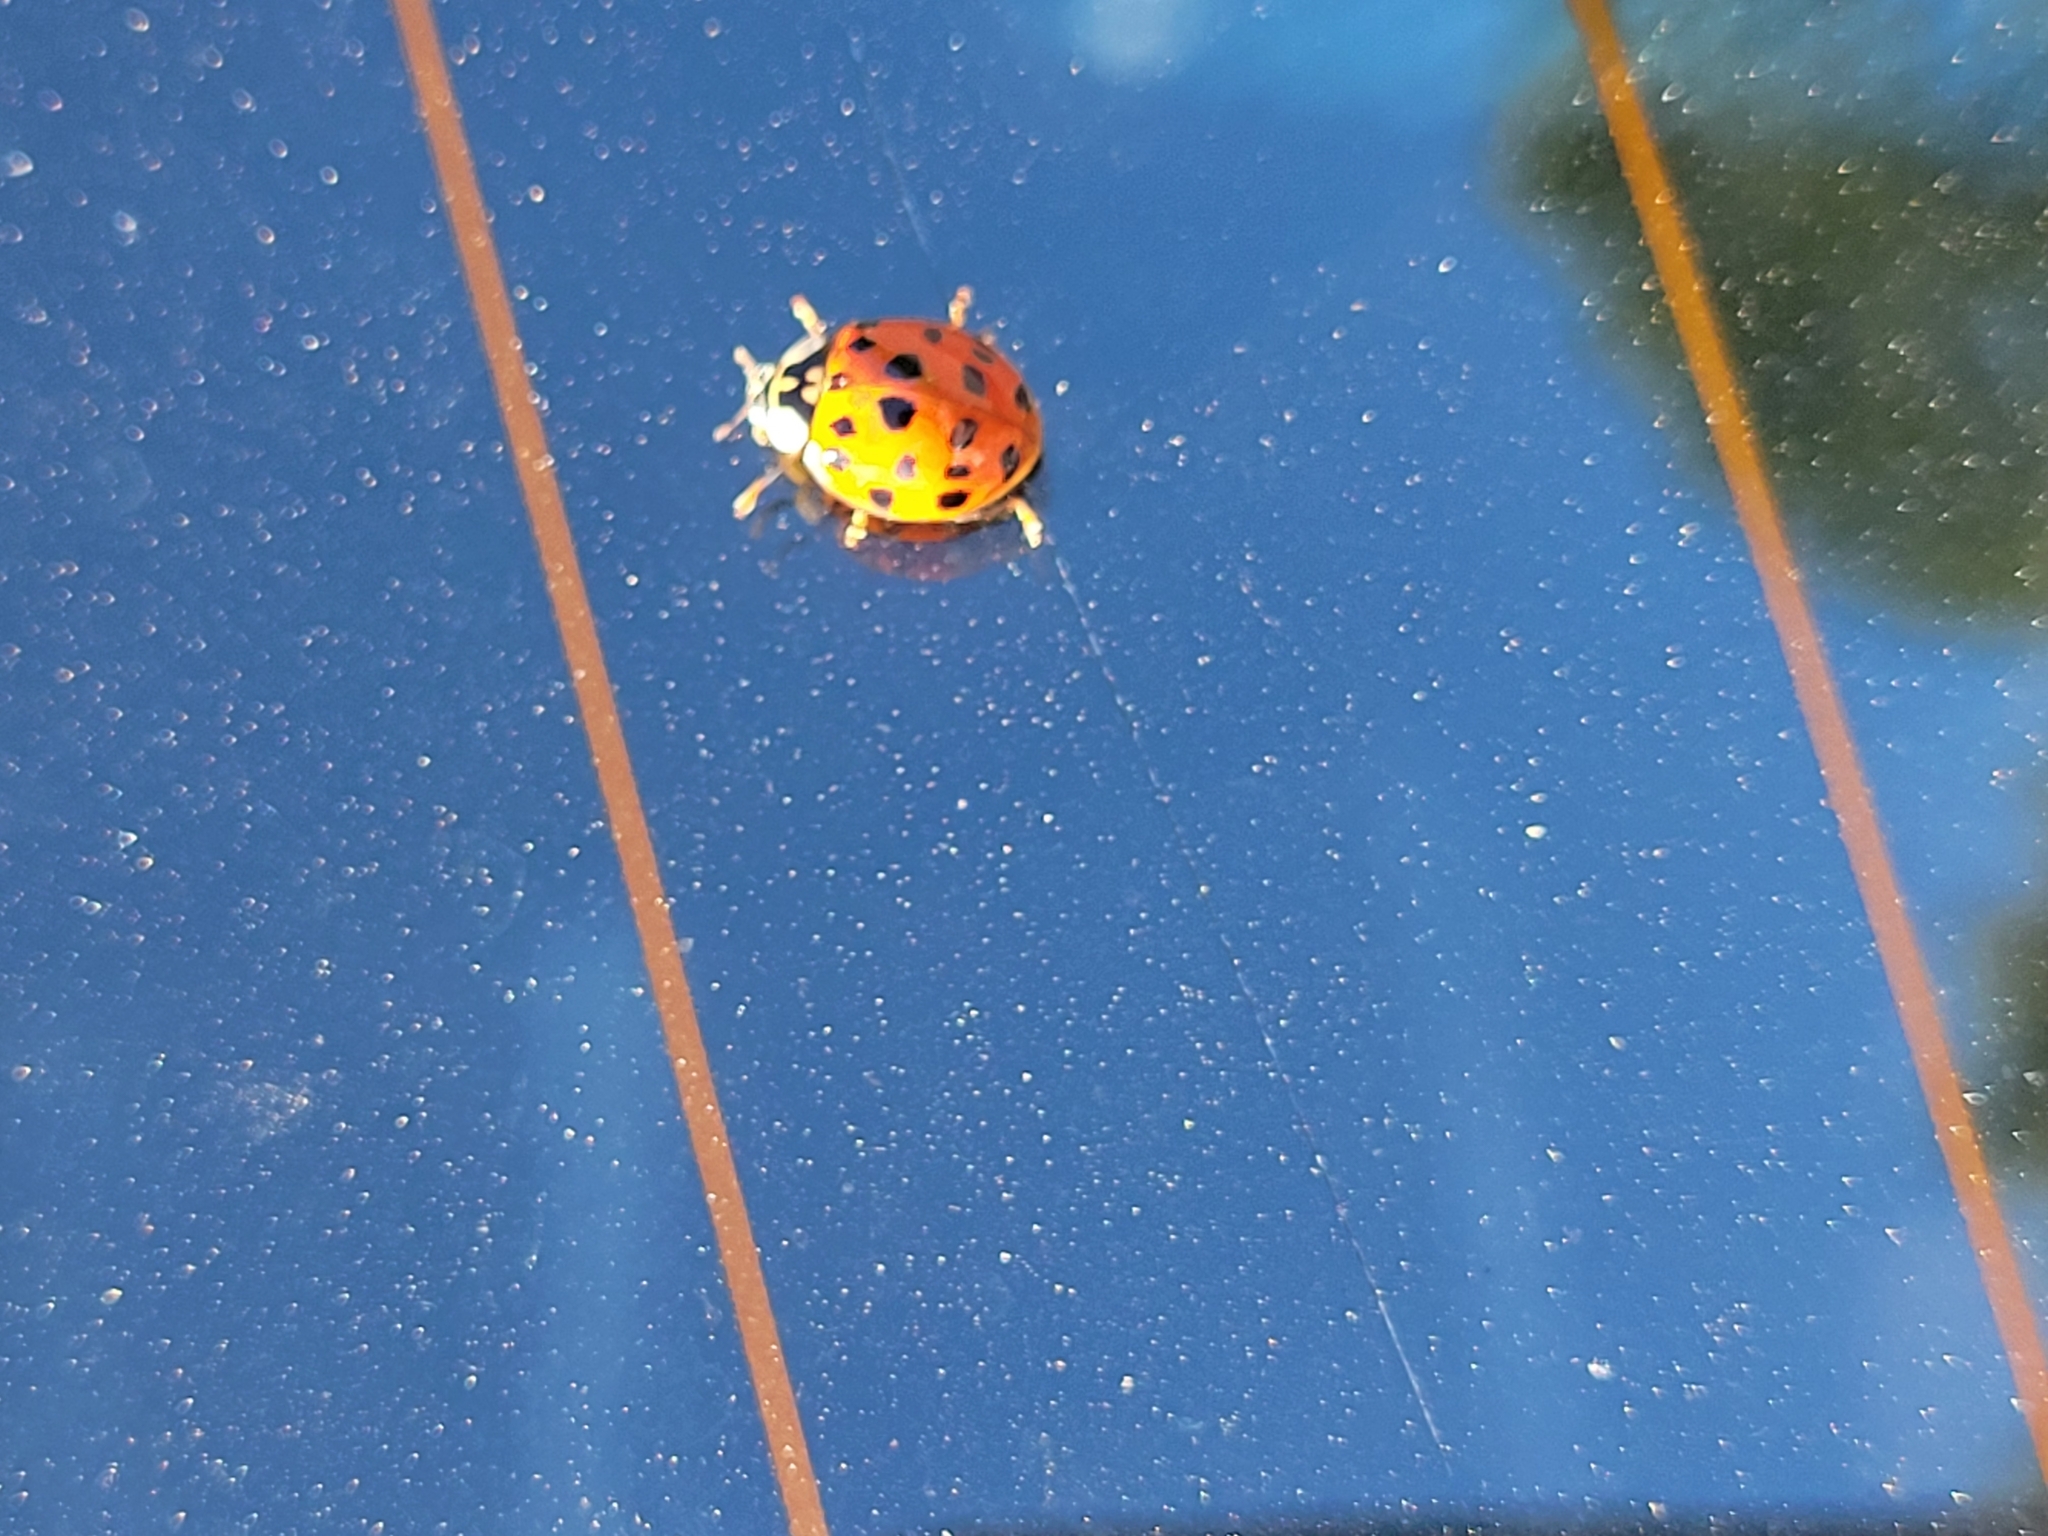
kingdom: Animalia
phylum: Arthropoda
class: Insecta
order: Coleoptera
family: Coccinellidae
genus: Harmonia
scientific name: Harmonia axyridis
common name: Harlequin ladybird
